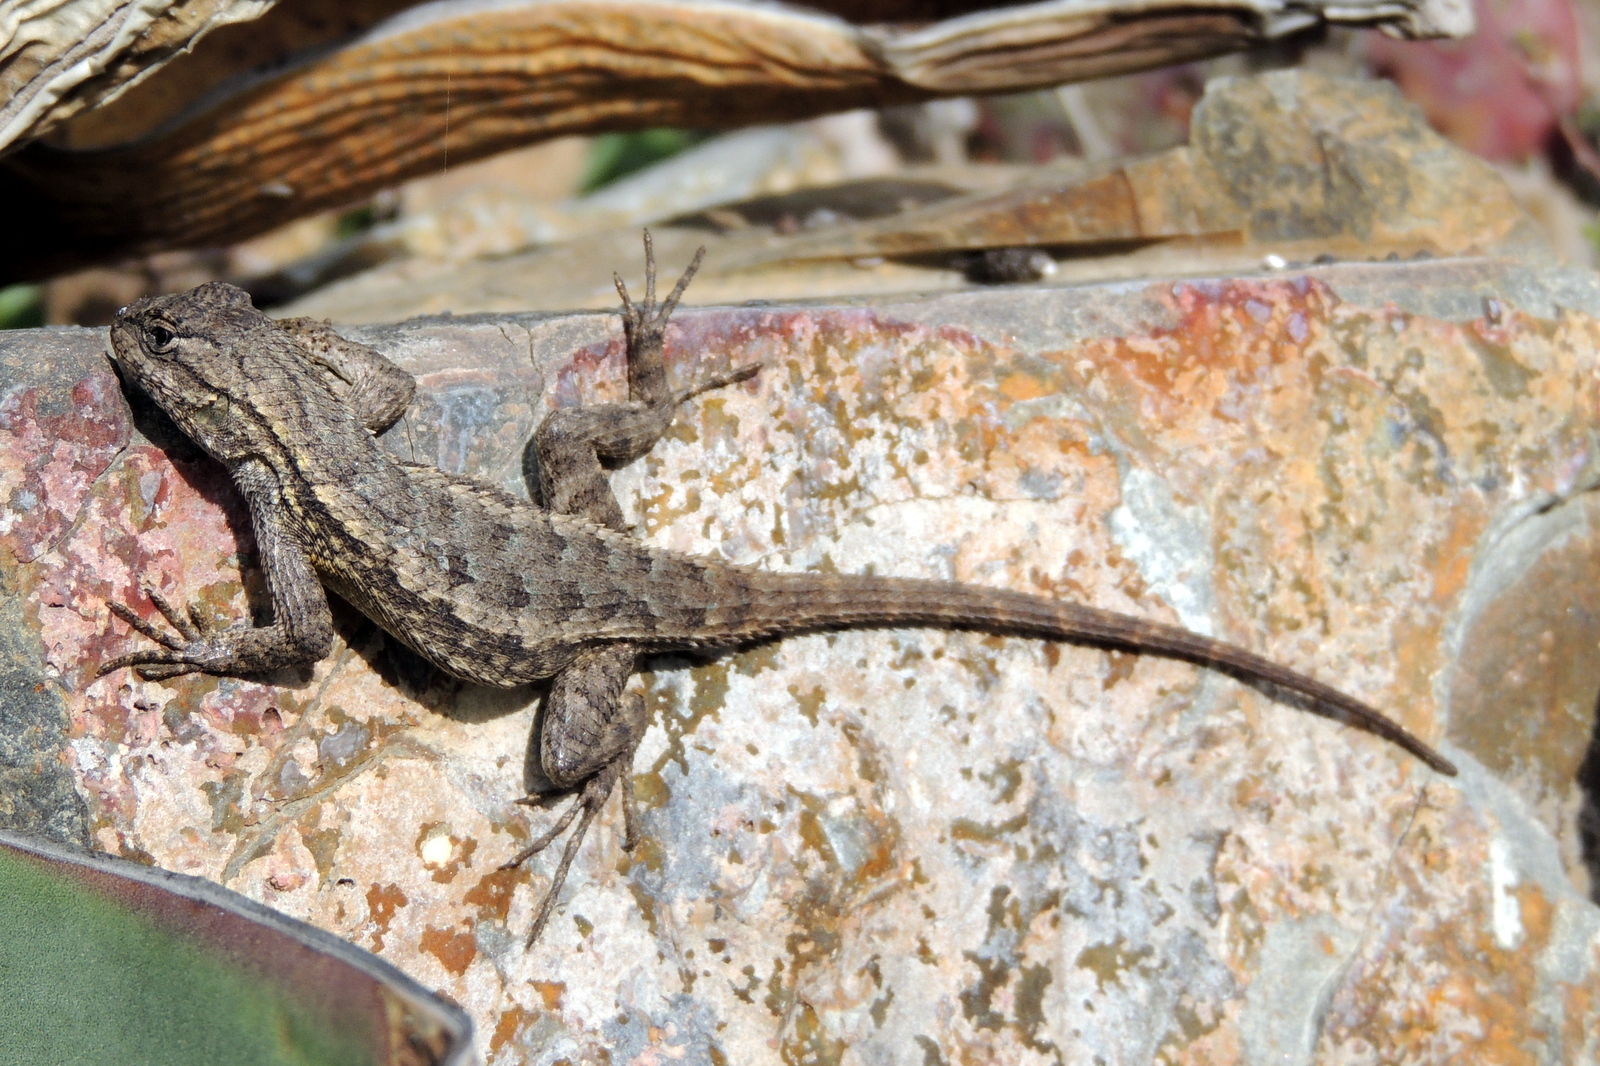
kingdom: Animalia
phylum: Chordata
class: Squamata
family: Phrynosomatidae
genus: Sceloporus
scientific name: Sceloporus occidentalis
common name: Western fence lizard
